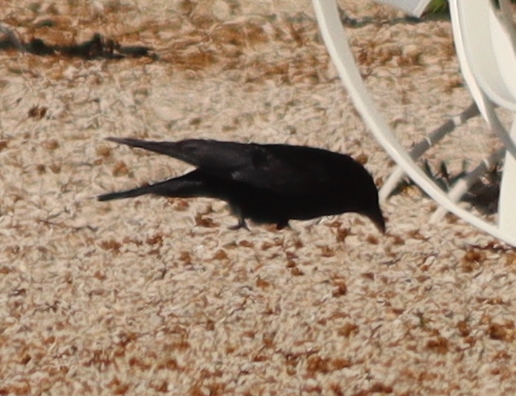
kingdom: Animalia
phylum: Chordata
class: Aves
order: Passeriformes
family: Corvidae
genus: Corvus
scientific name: Corvus corone
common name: Carrion crow
